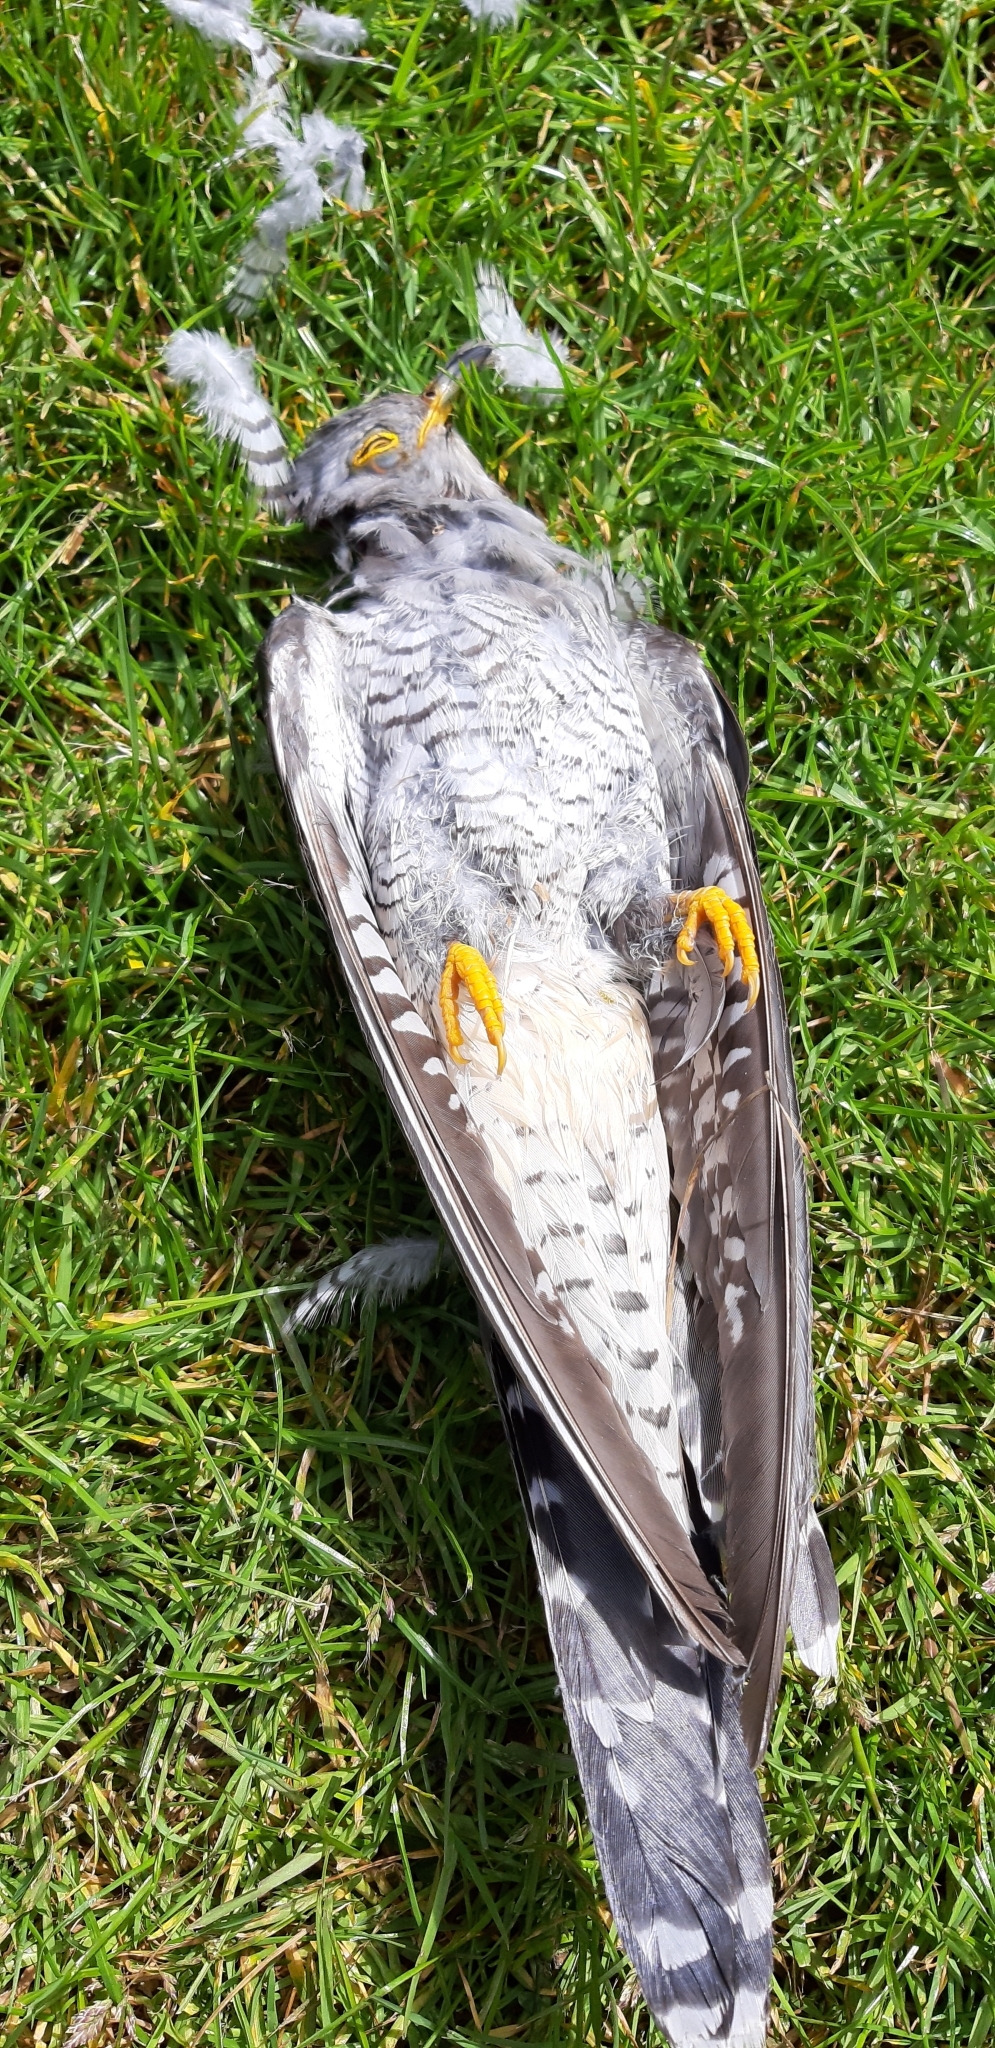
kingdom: Animalia
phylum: Chordata
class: Aves
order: Cuculiformes
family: Cuculidae
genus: Cuculus
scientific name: Cuculus canorus
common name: Common cuckoo
